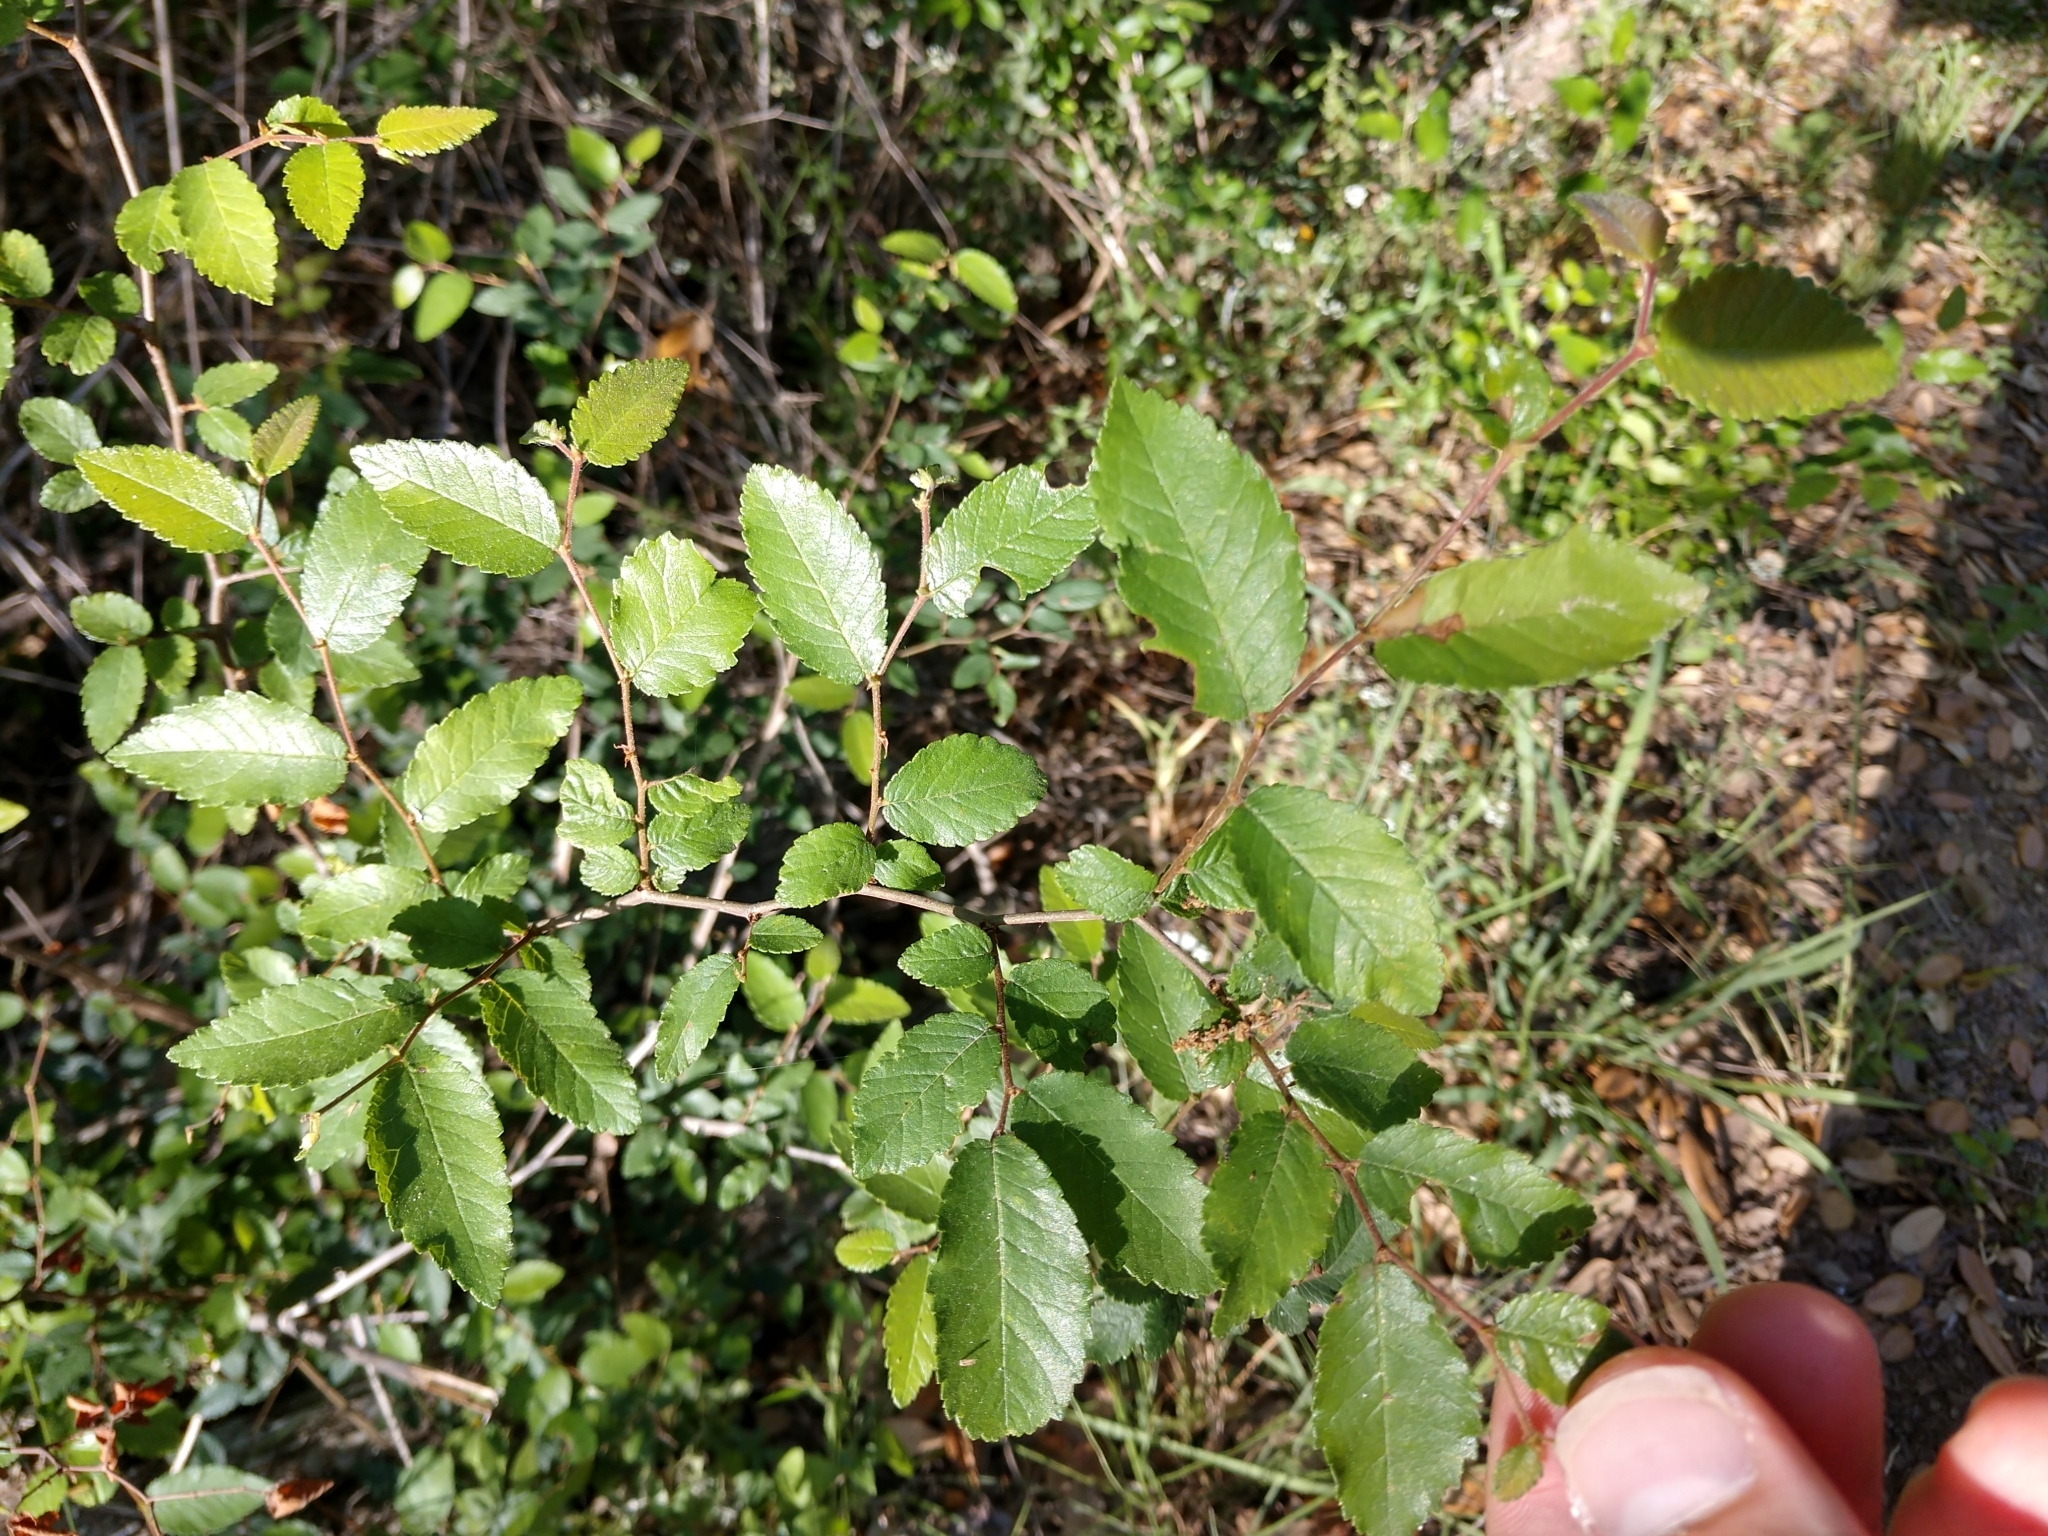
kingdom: Plantae
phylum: Tracheophyta
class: Magnoliopsida
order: Rosales
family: Ulmaceae
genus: Ulmus
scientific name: Ulmus crassifolia
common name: Basket elm
